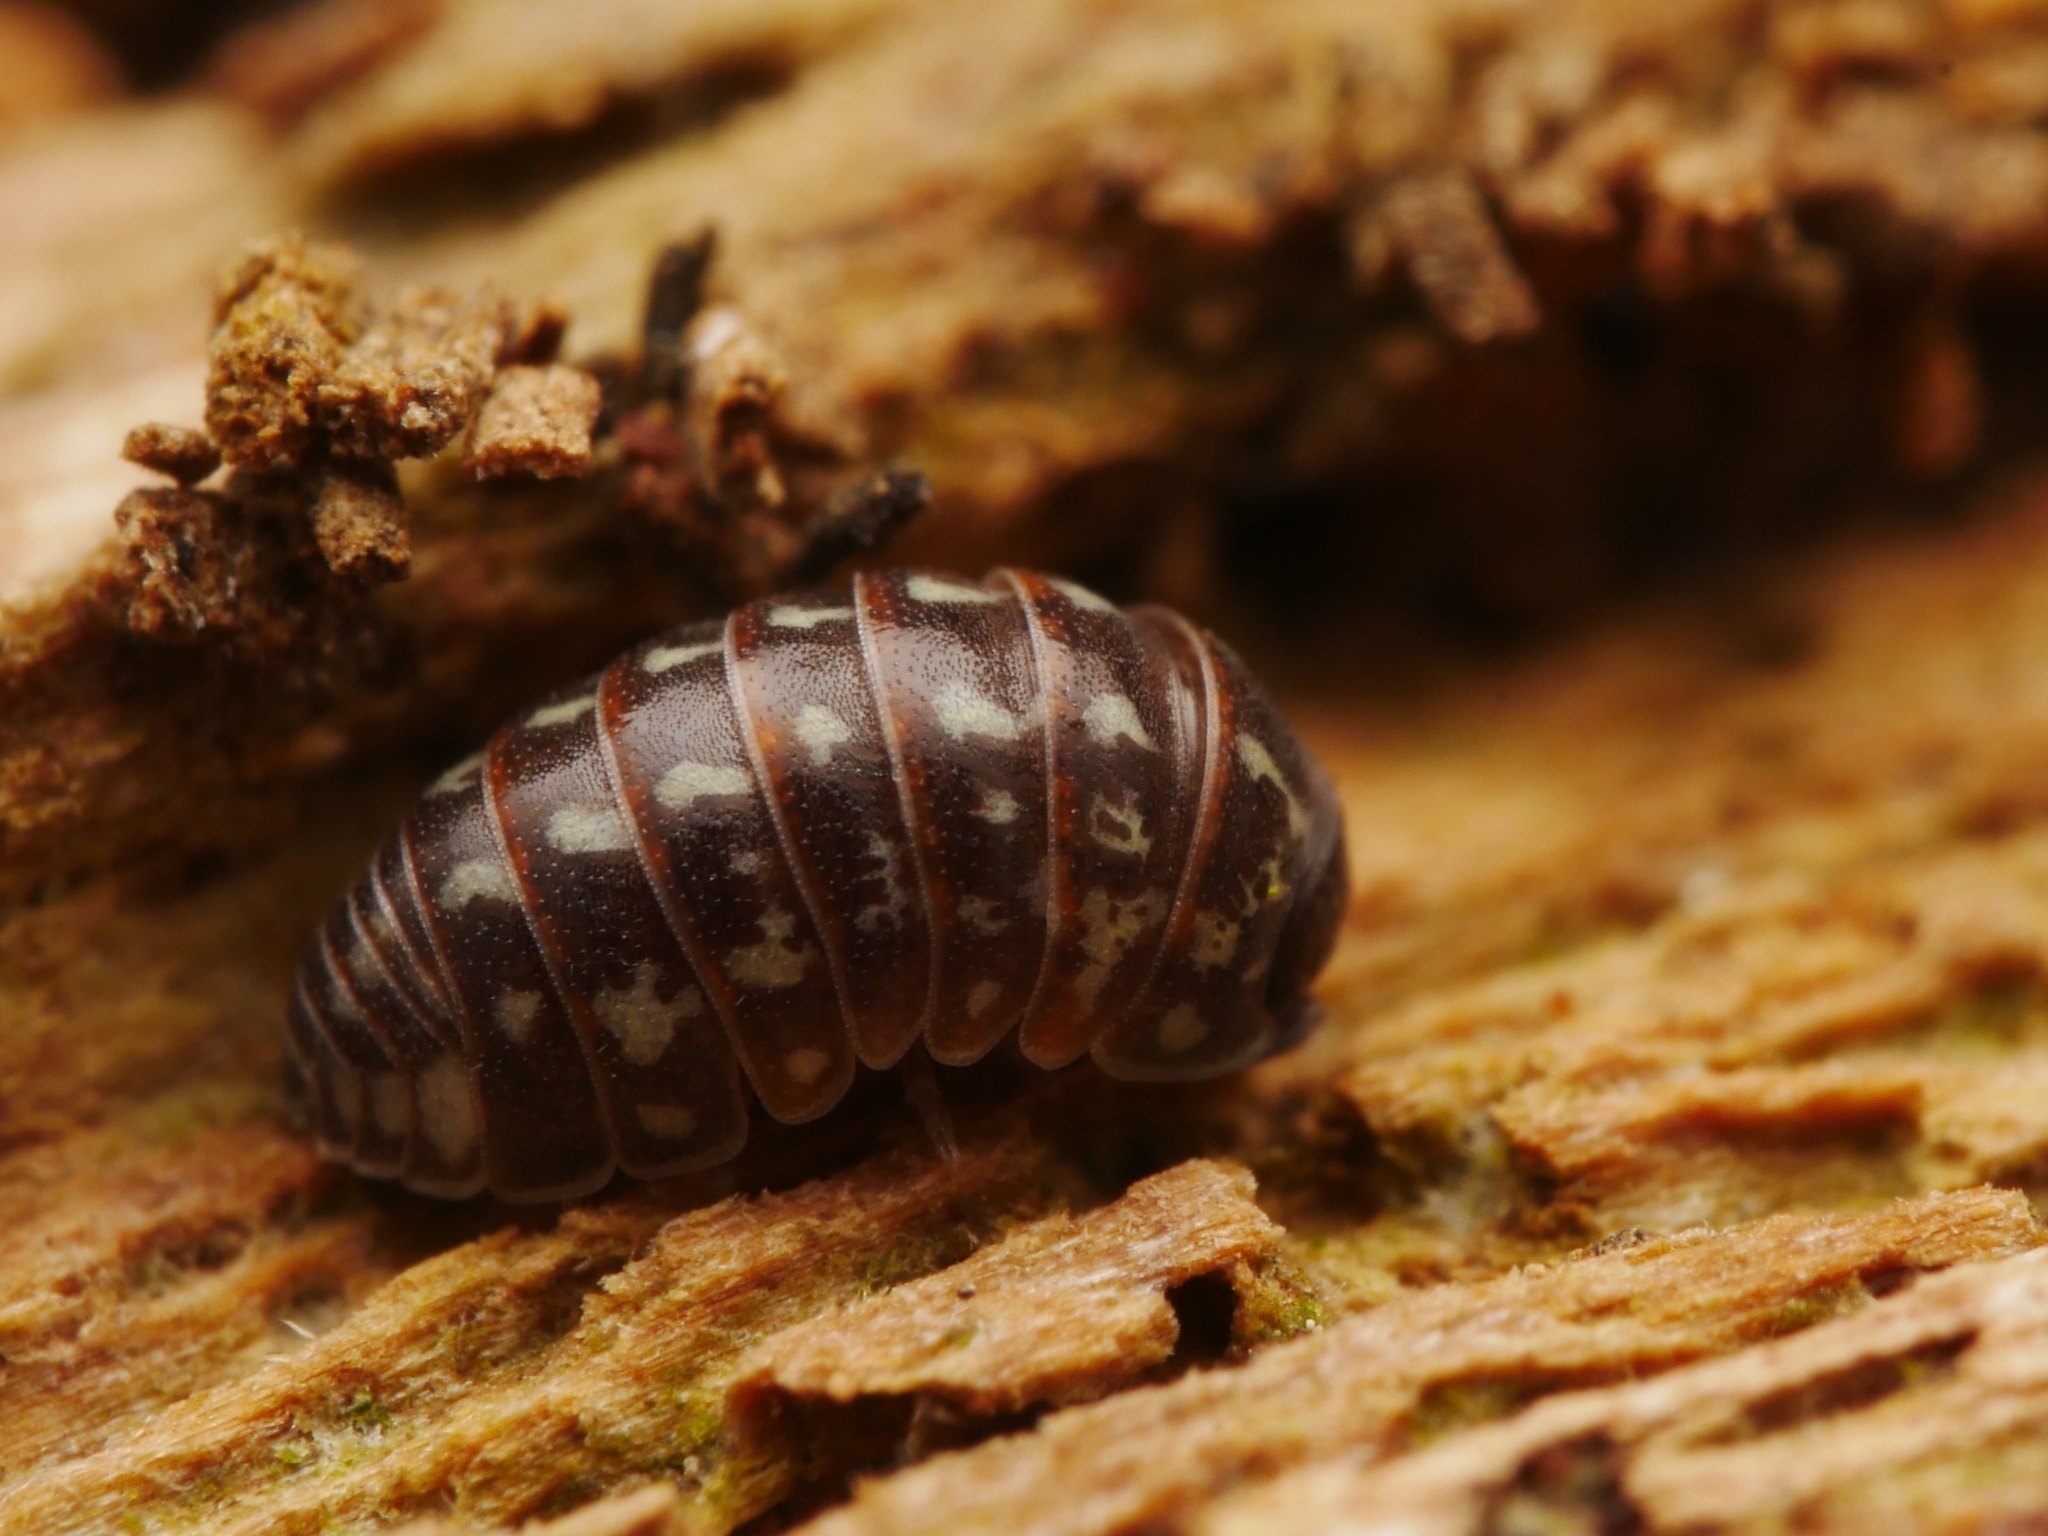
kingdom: Animalia
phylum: Arthropoda
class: Malacostraca
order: Isopoda
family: Armadillidiidae
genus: Armadillidium
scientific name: Armadillidium pulchellum
